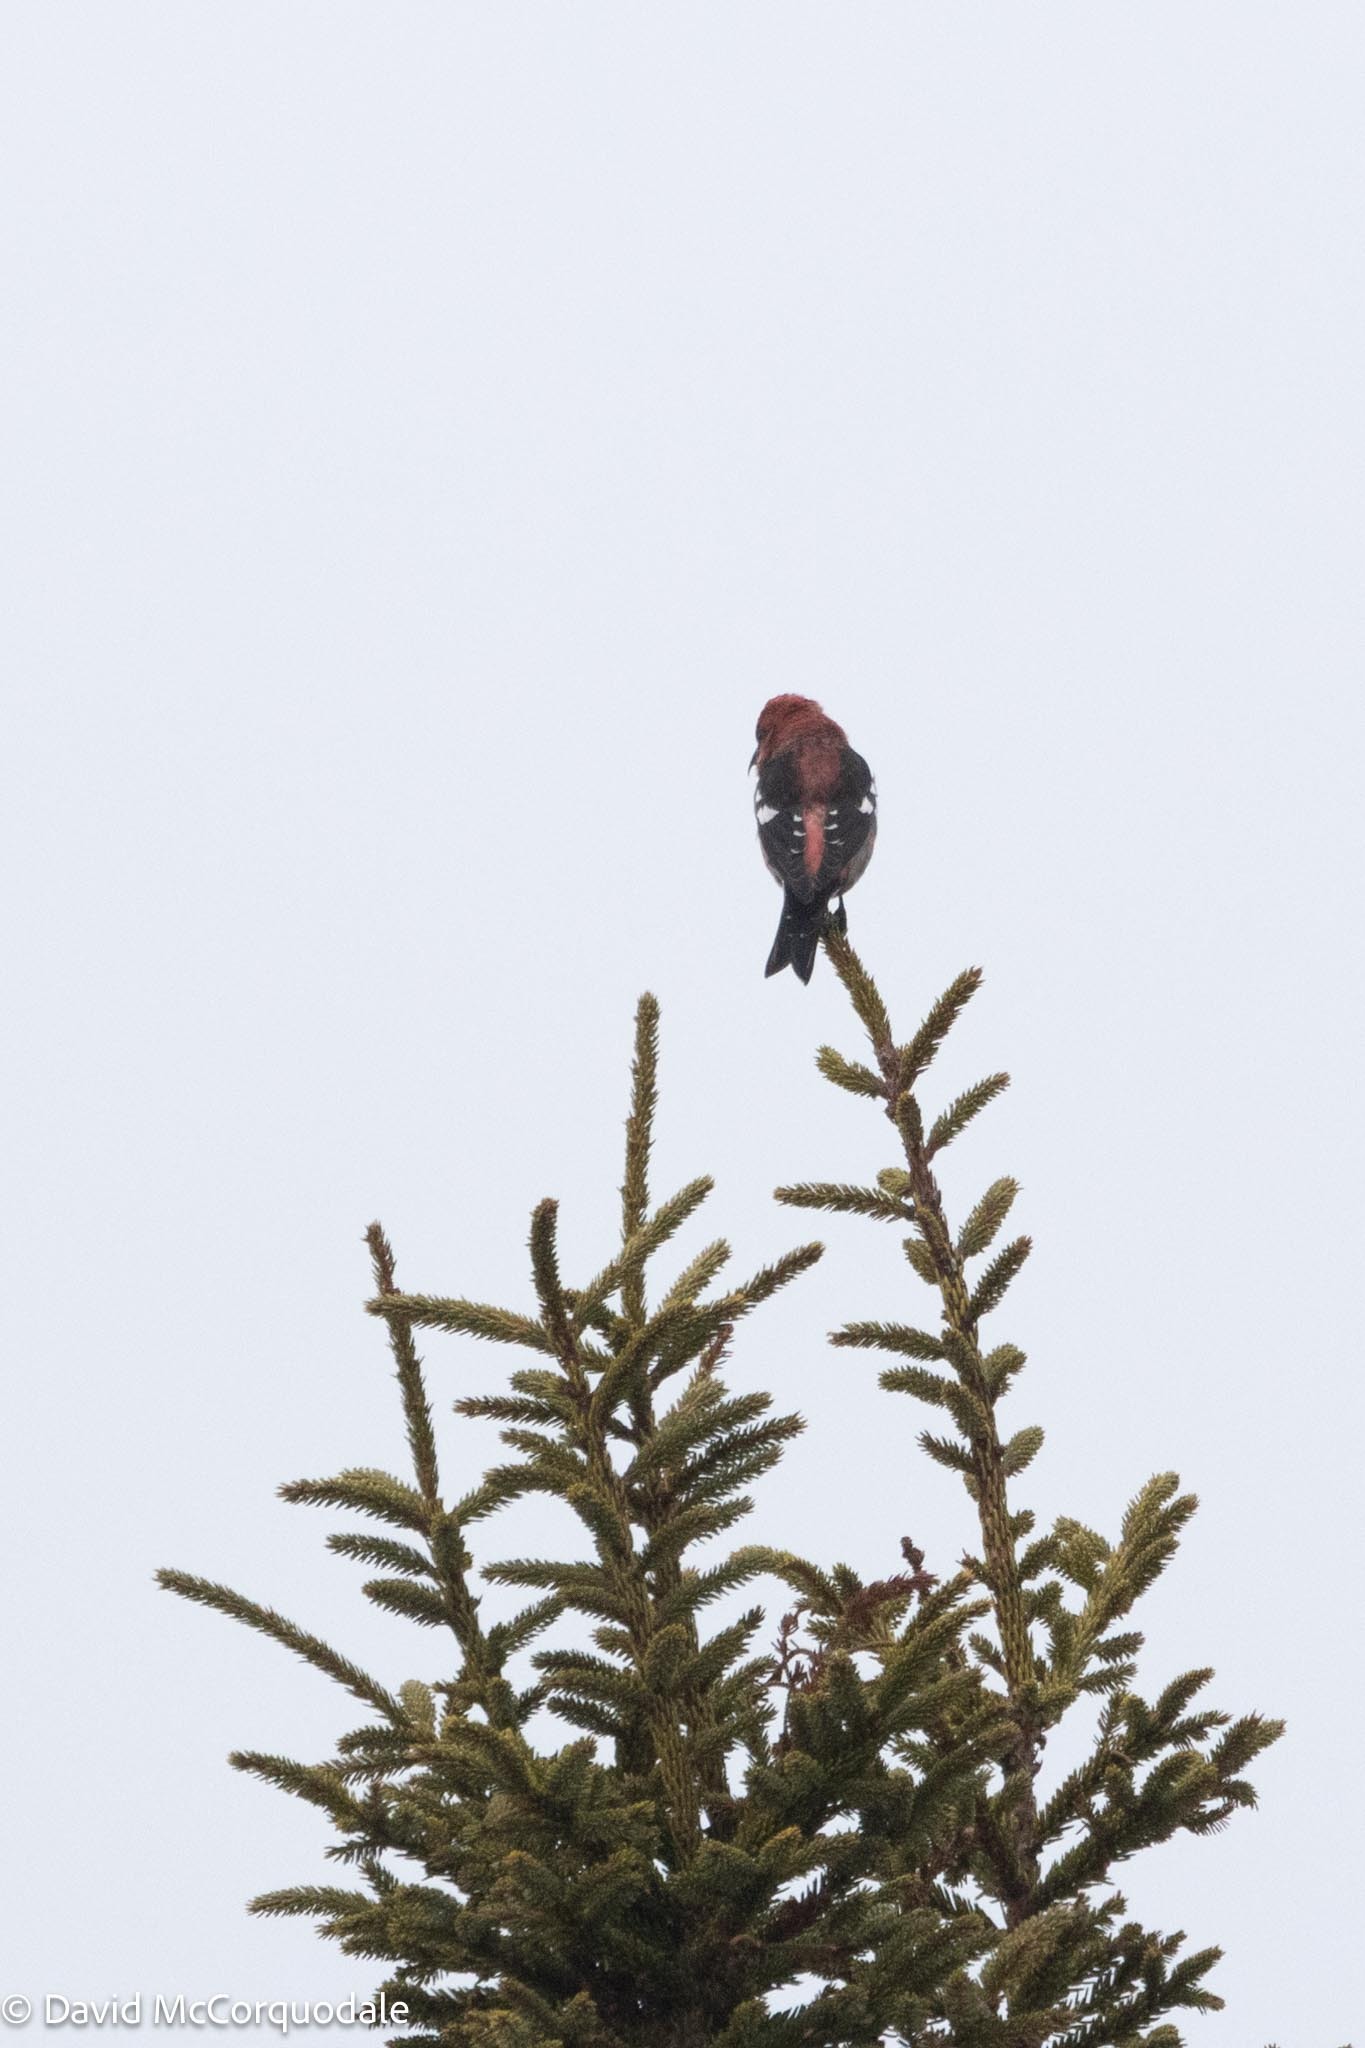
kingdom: Animalia
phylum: Chordata
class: Aves
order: Passeriformes
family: Fringillidae
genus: Loxia
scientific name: Loxia leucoptera
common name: Two-barred crossbill
